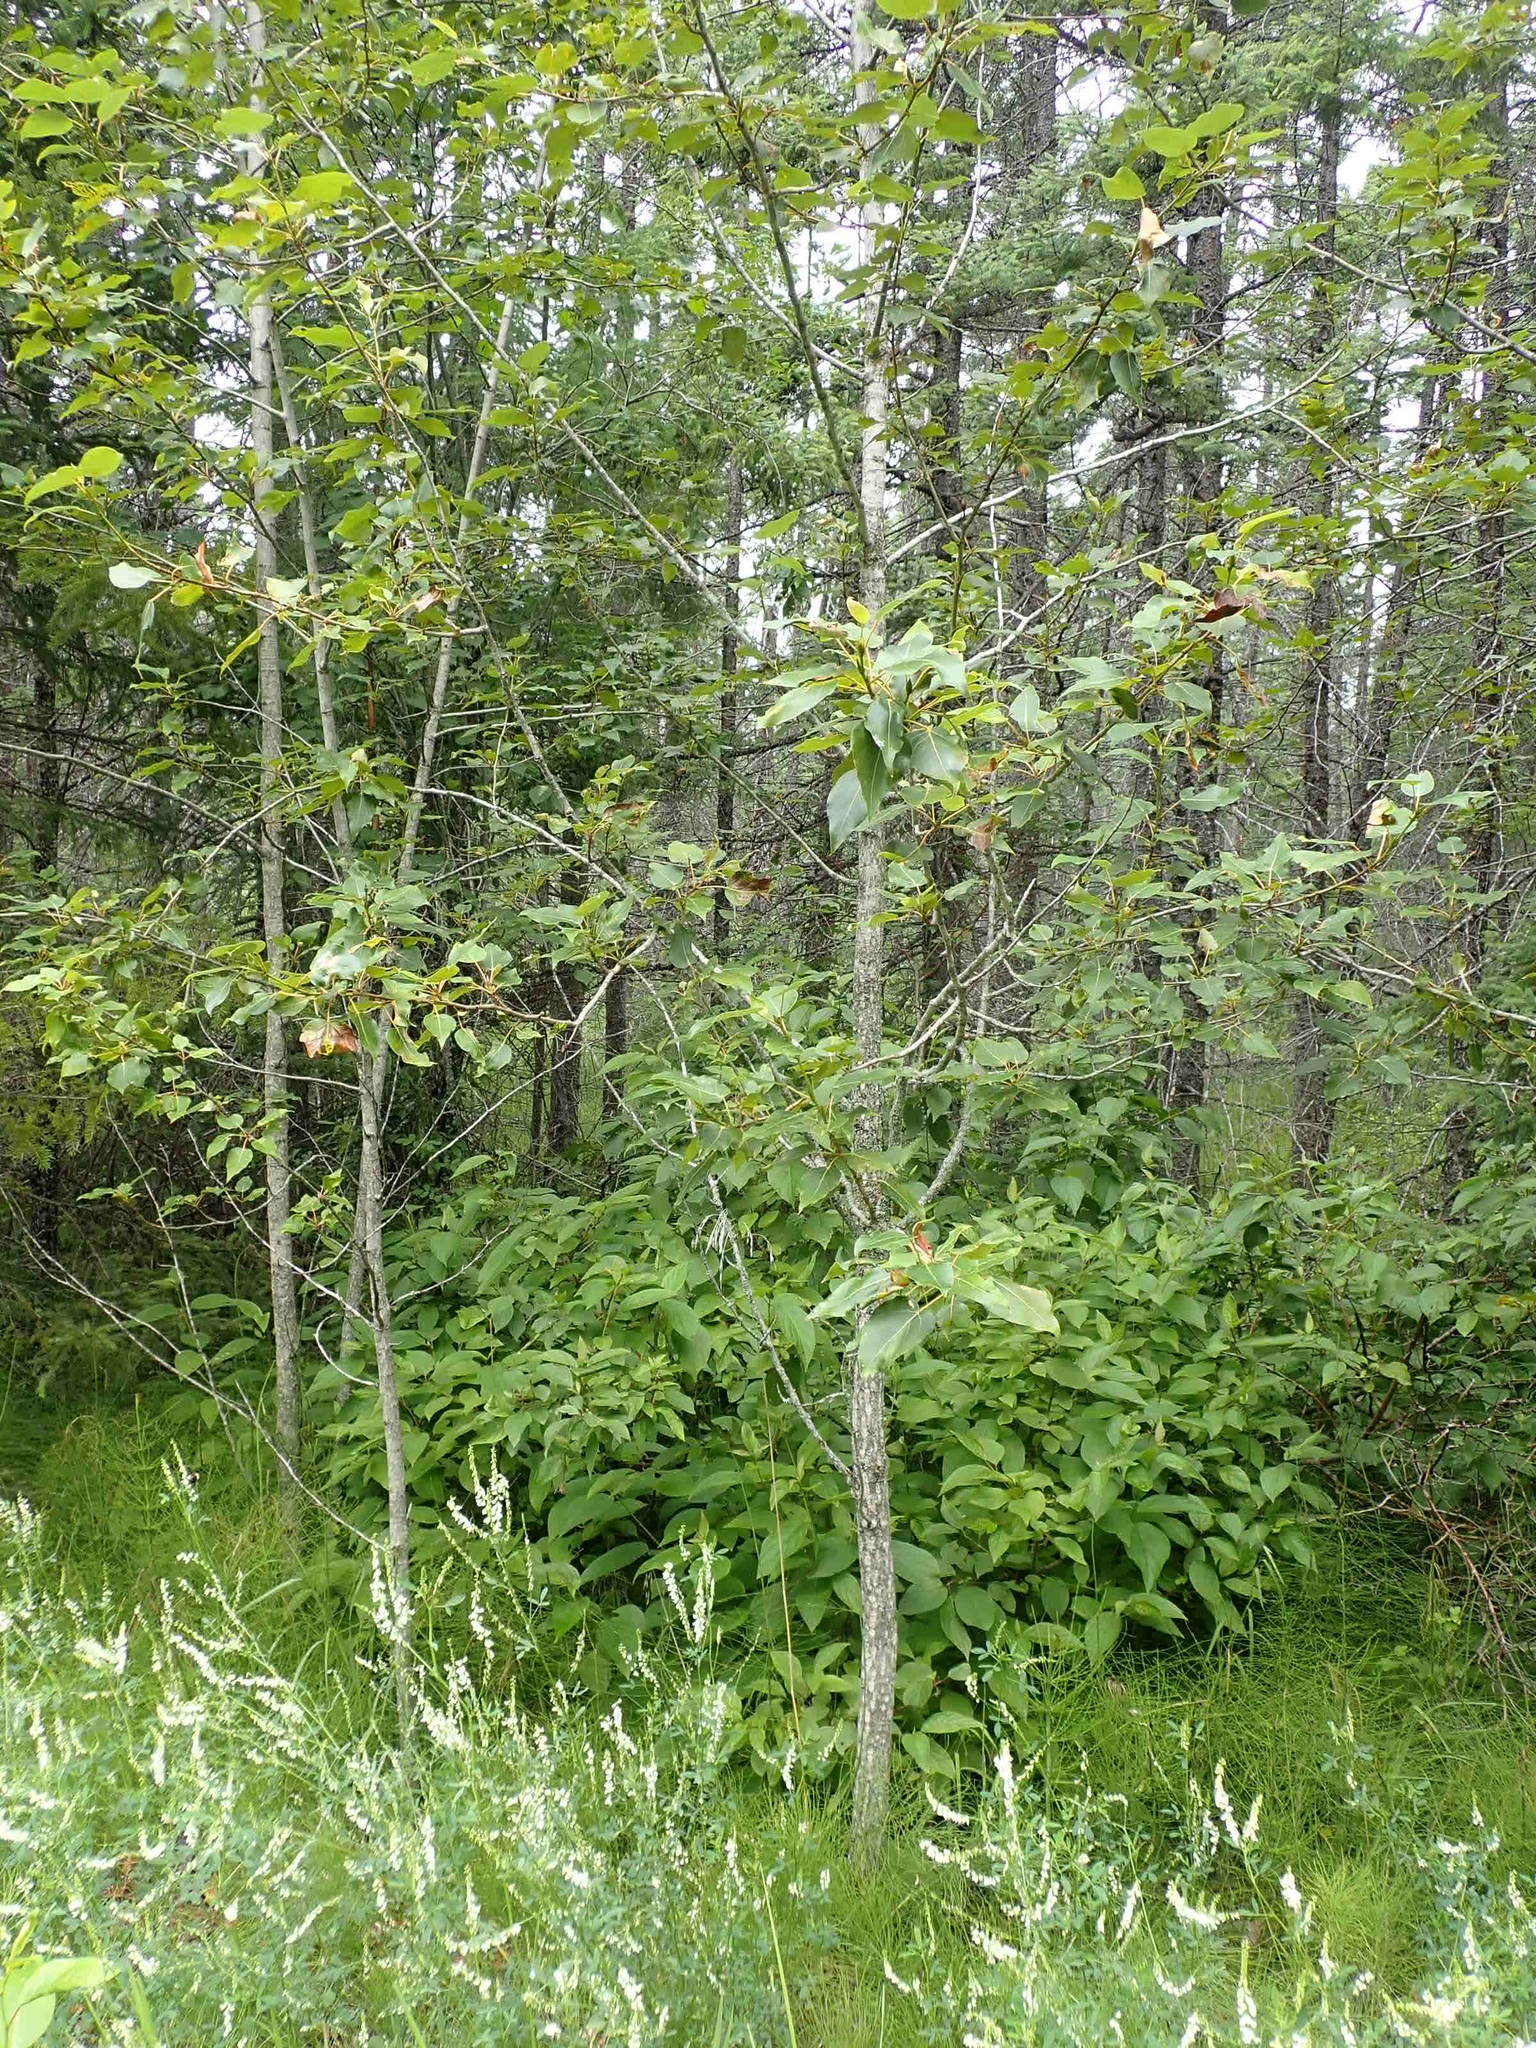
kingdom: Plantae
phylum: Tracheophyta
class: Magnoliopsida
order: Malpighiales
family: Salicaceae
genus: Populus
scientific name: Populus balsamifera
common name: Balsam poplar
